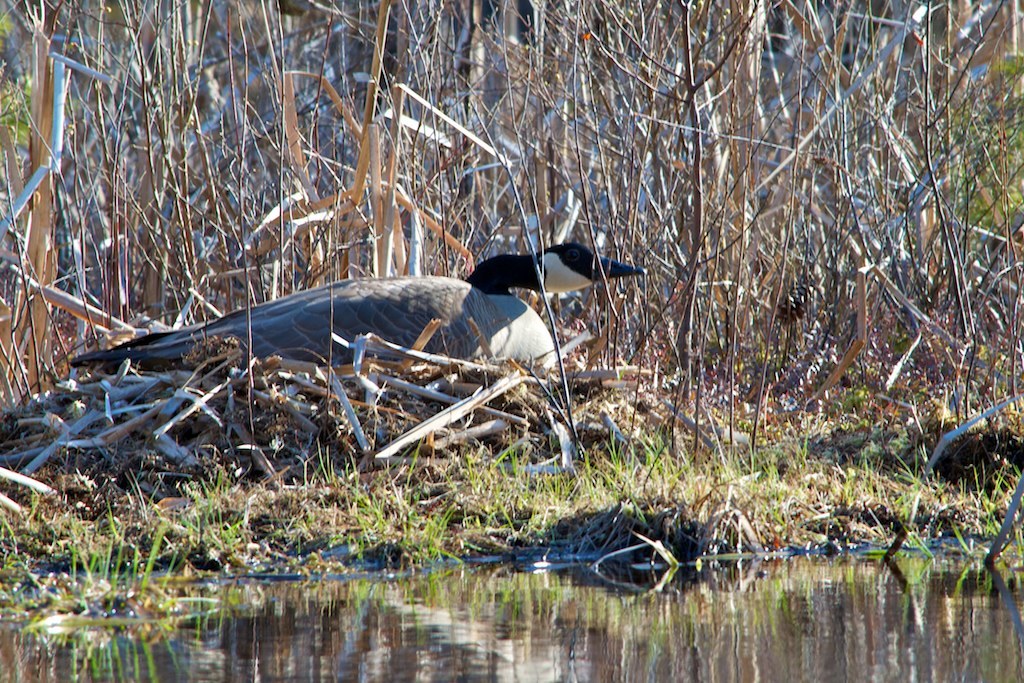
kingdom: Animalia
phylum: Chordata
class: Aves
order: Anseriformes
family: Anatidae
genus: Branta
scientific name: Branta canadensis
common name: Canada goose
